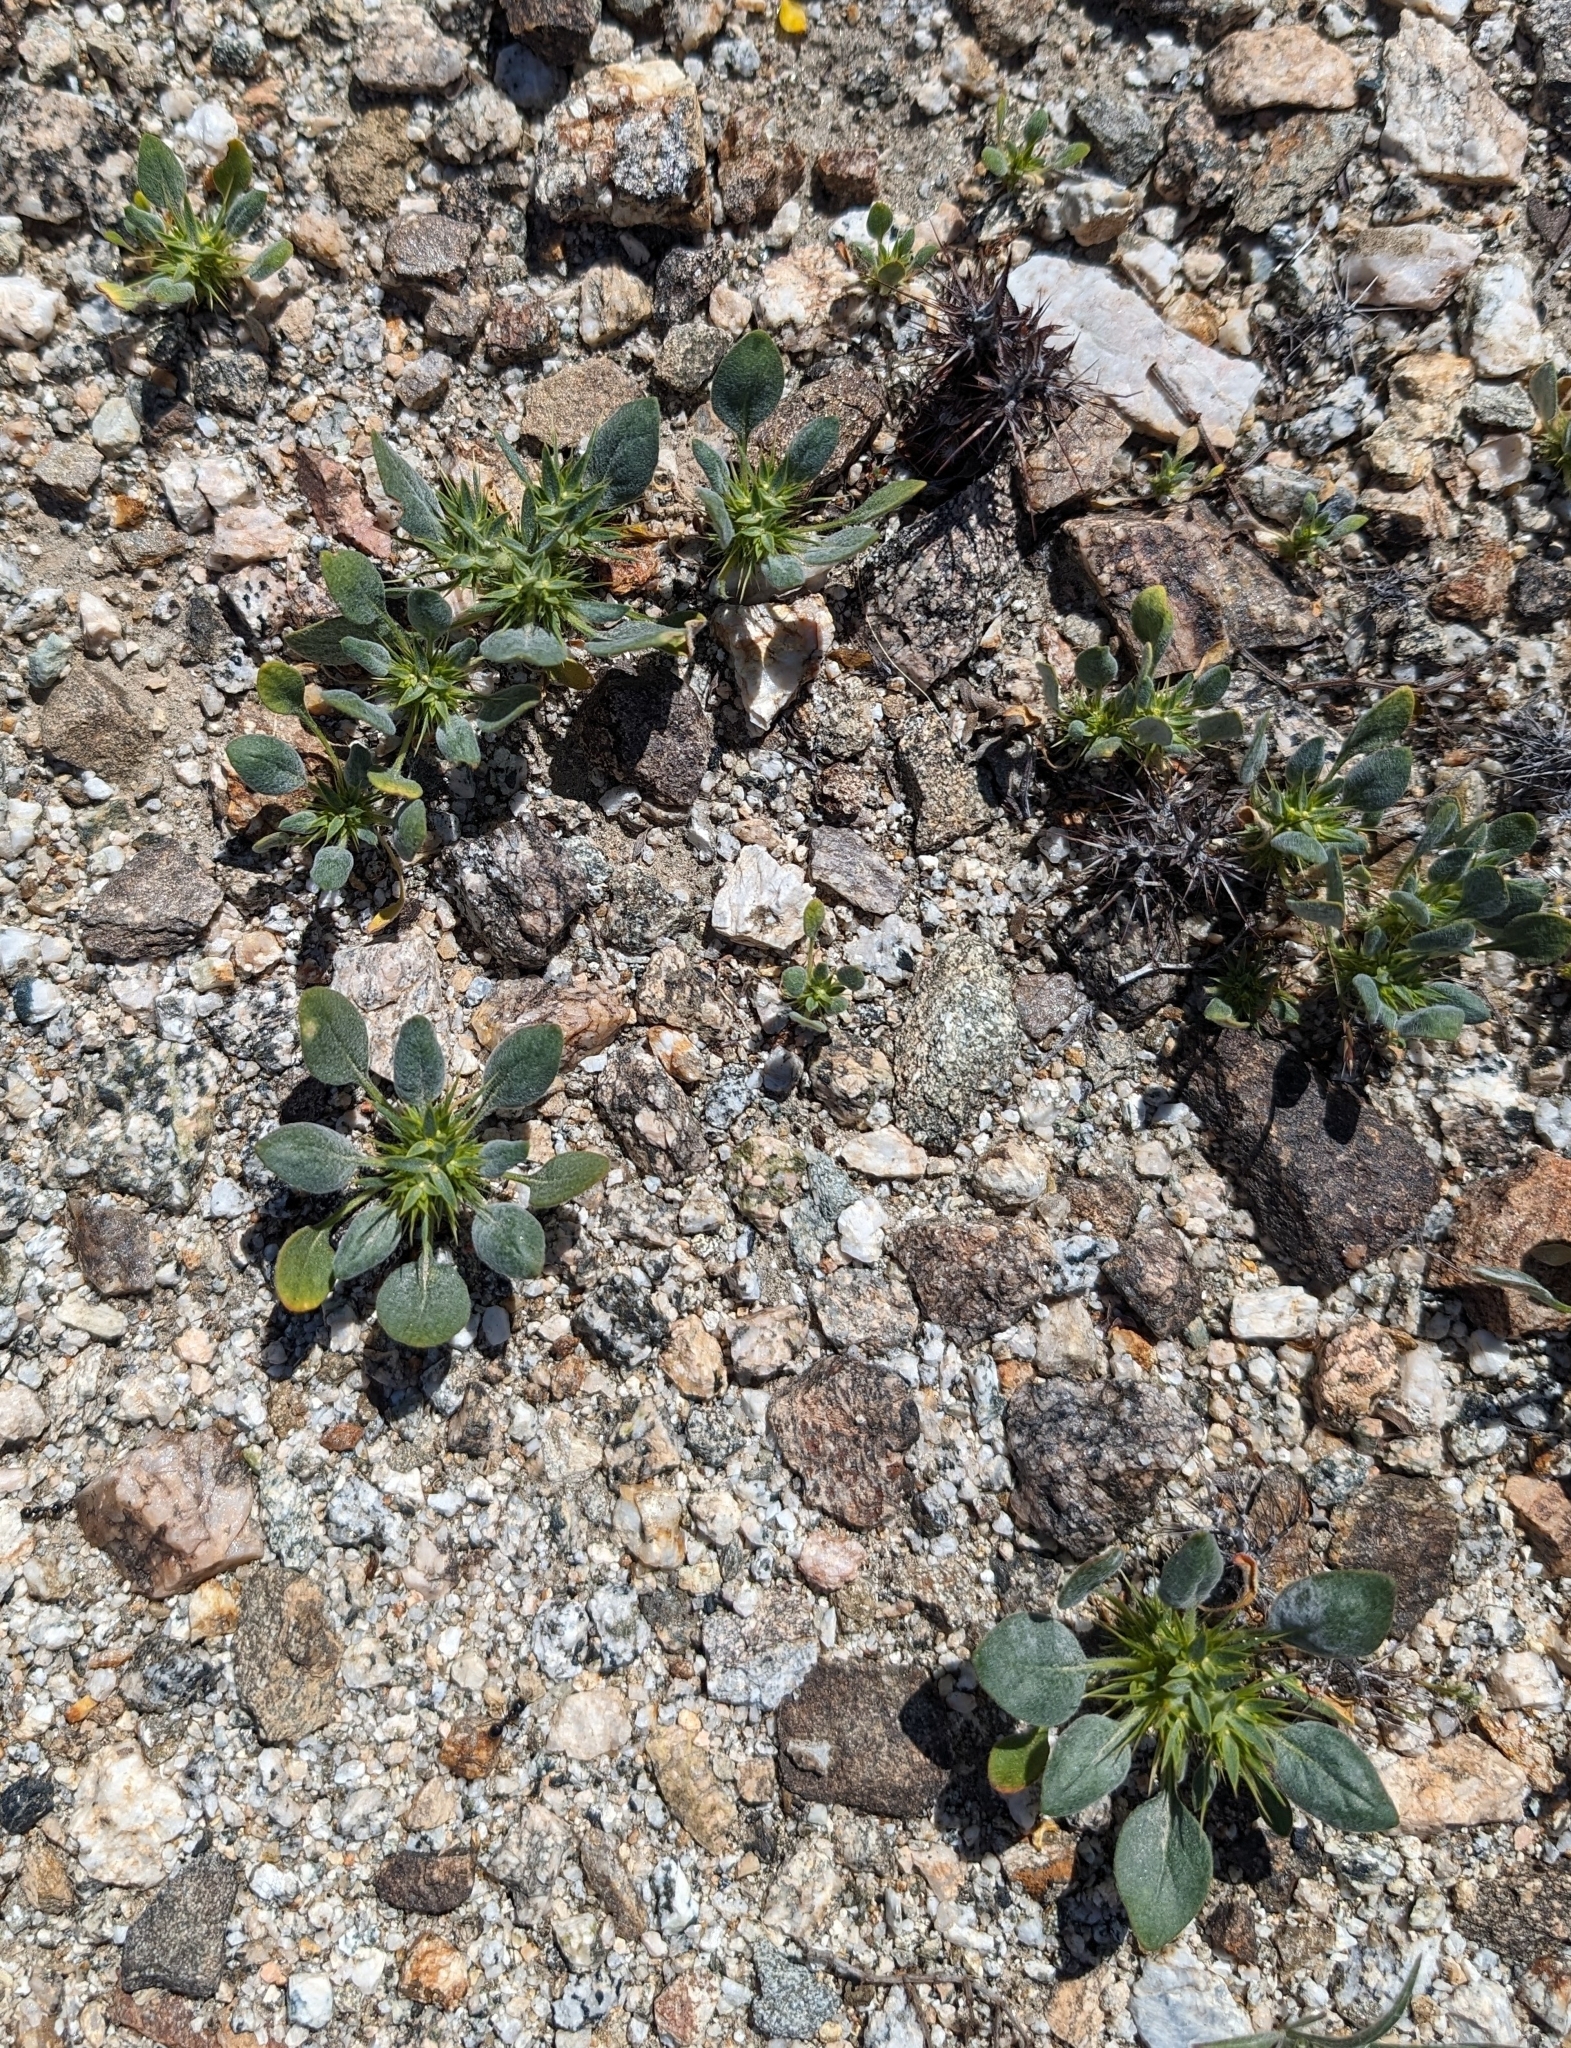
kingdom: Plantae
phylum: Tracheophyta
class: Magnoliopsida
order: Caryophyllales
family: Polygonaceae
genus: Chorizanthe
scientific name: Chorizanthe rigida
